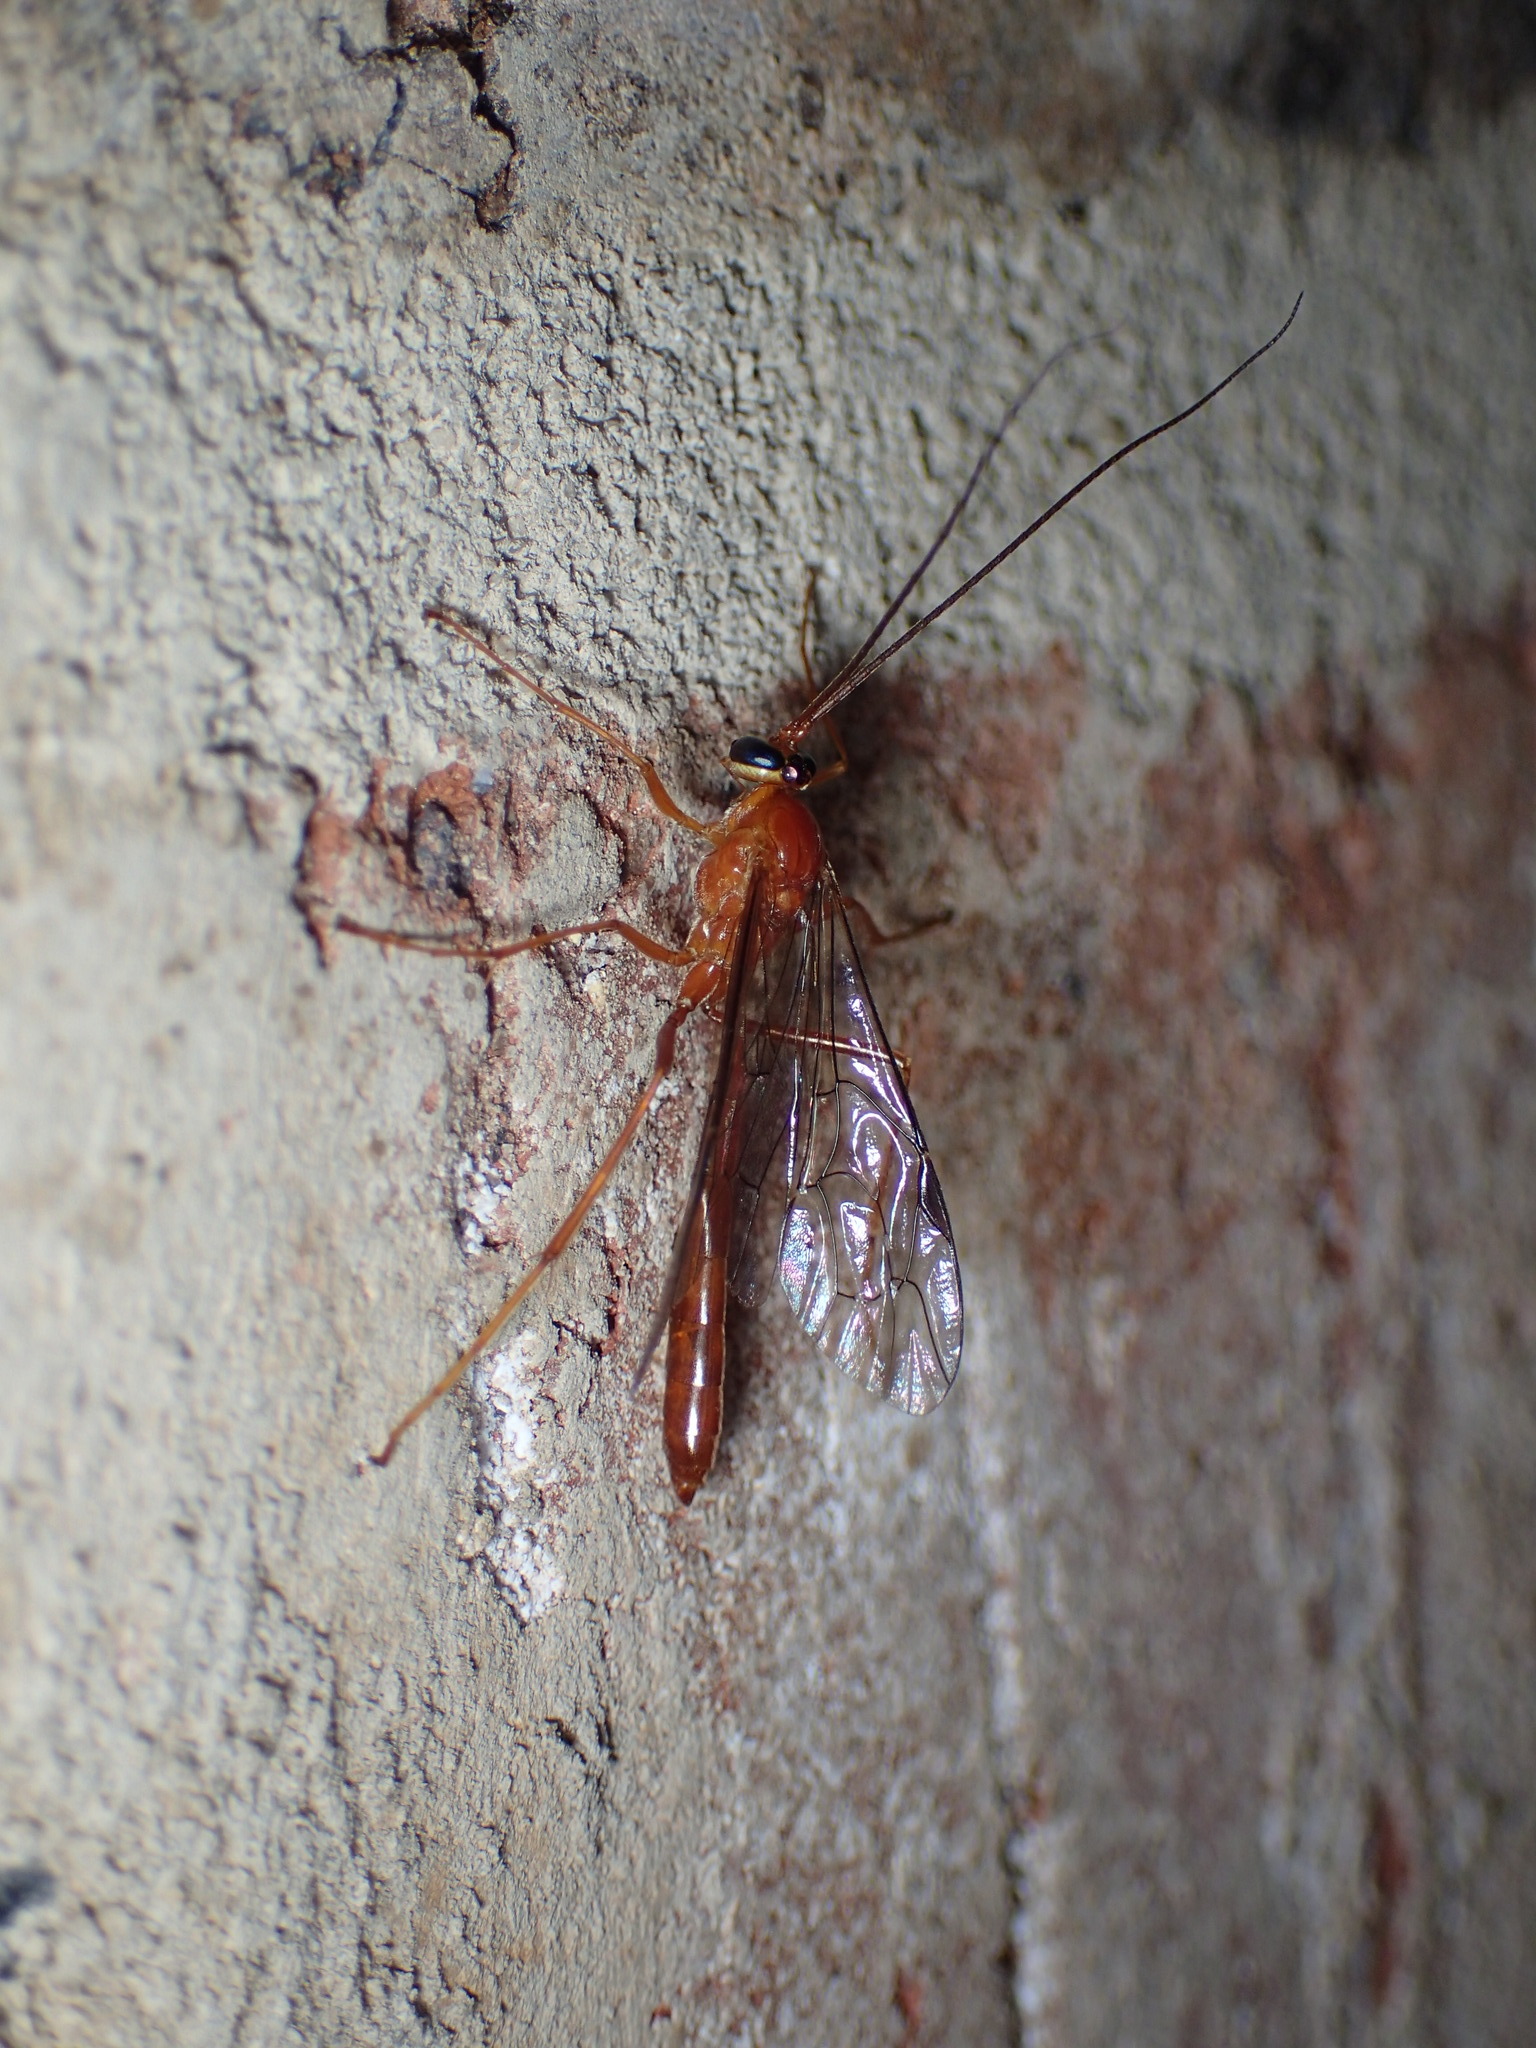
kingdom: Animalia
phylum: Arthropoda
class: Insecta
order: Hymenoptera
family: Ichneumonidae
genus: Netelia
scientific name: Netelia
